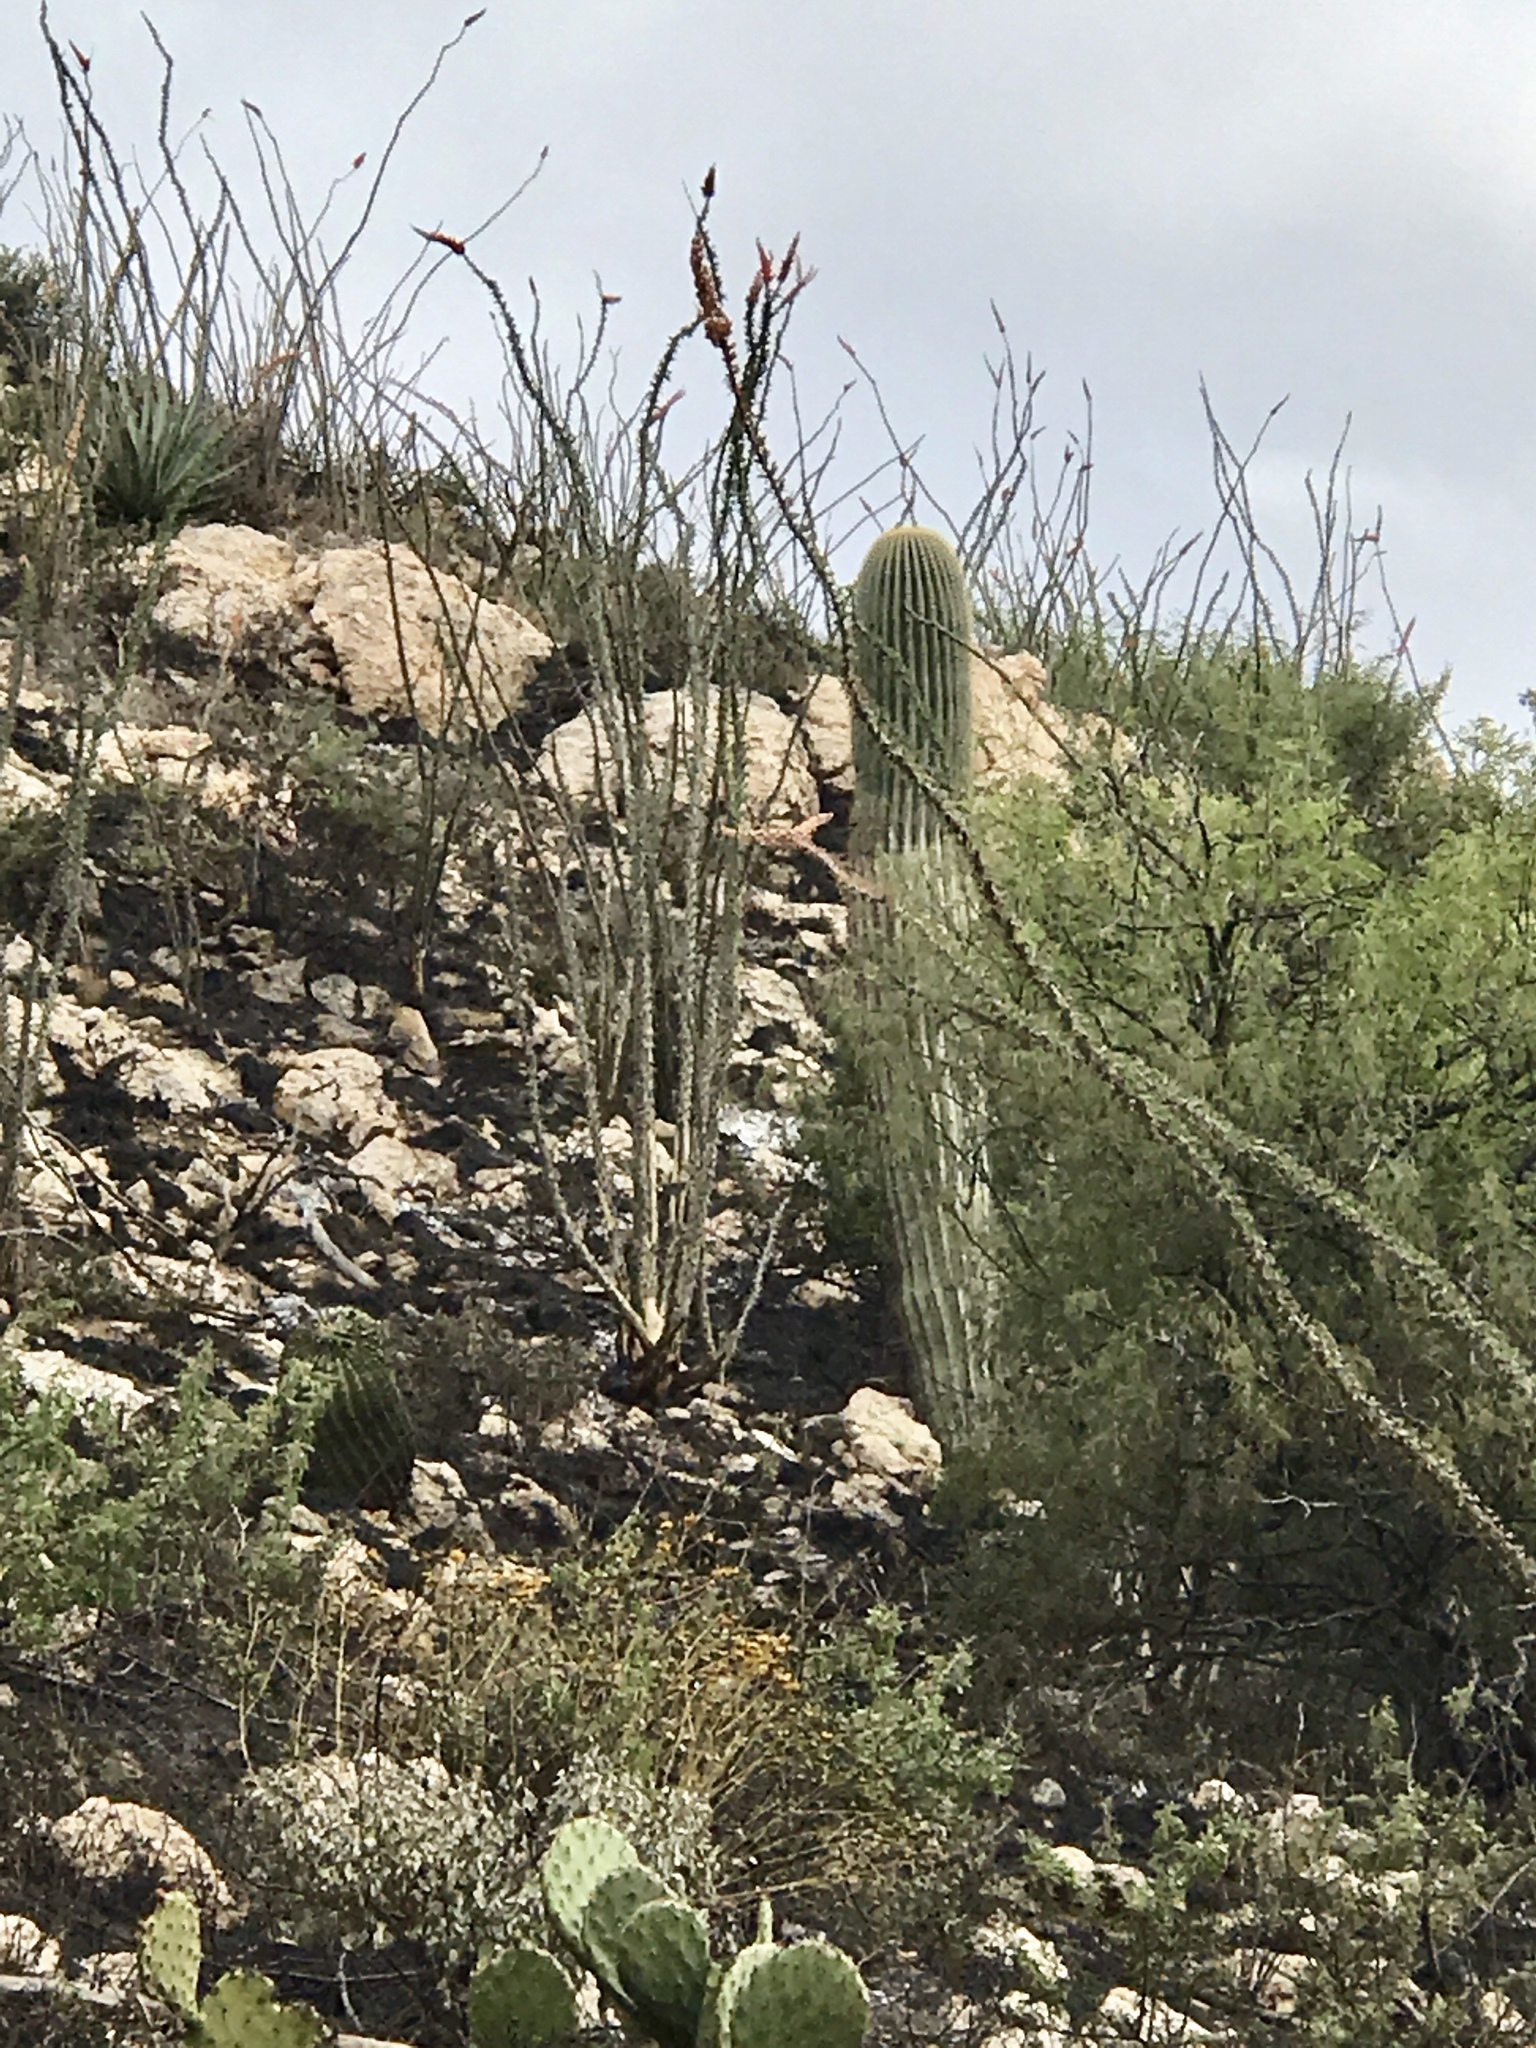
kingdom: Plantae
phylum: Tracheophyta
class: Magnoliopsida
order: Ericales
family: Fouquieriaceae
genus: Fouquieria
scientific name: Fouquieria splendens
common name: Vine-cactus
